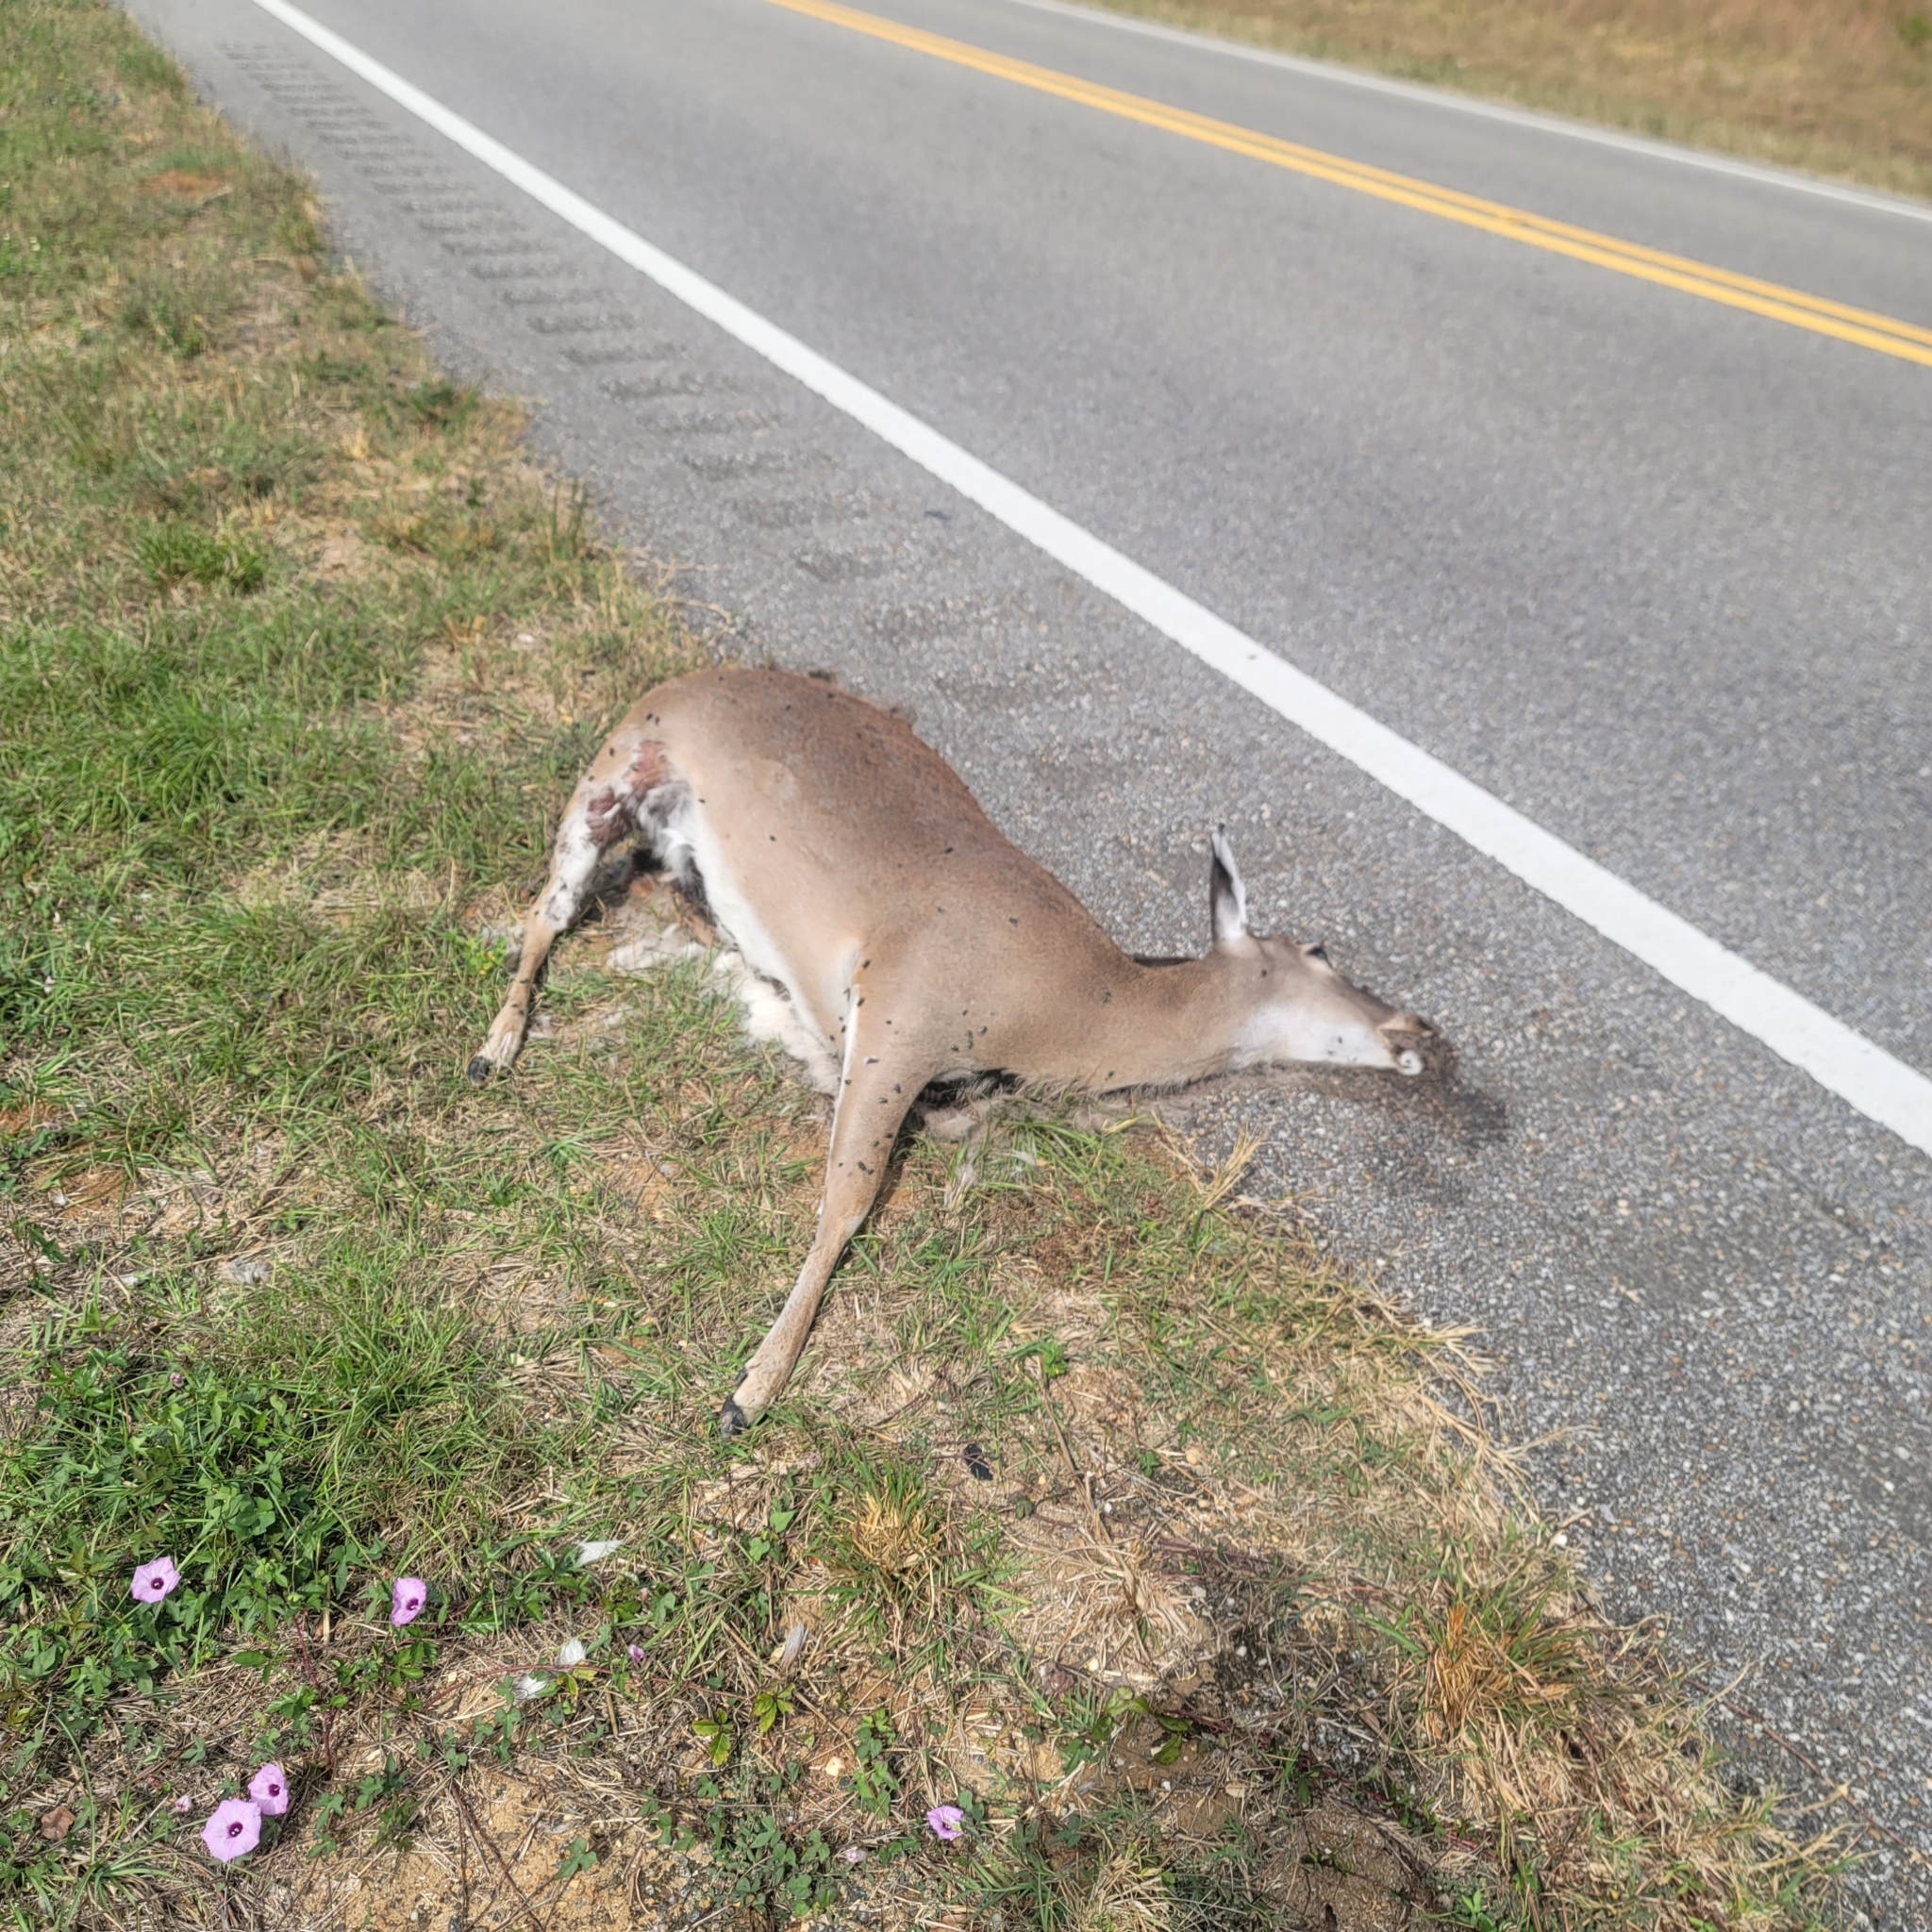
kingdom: Animalia
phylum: Chordata
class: Mammalia
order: Artiodactyla
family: Cervidae
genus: Odocoileus
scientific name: Odocoileus virginianus
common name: White-tailed deer
